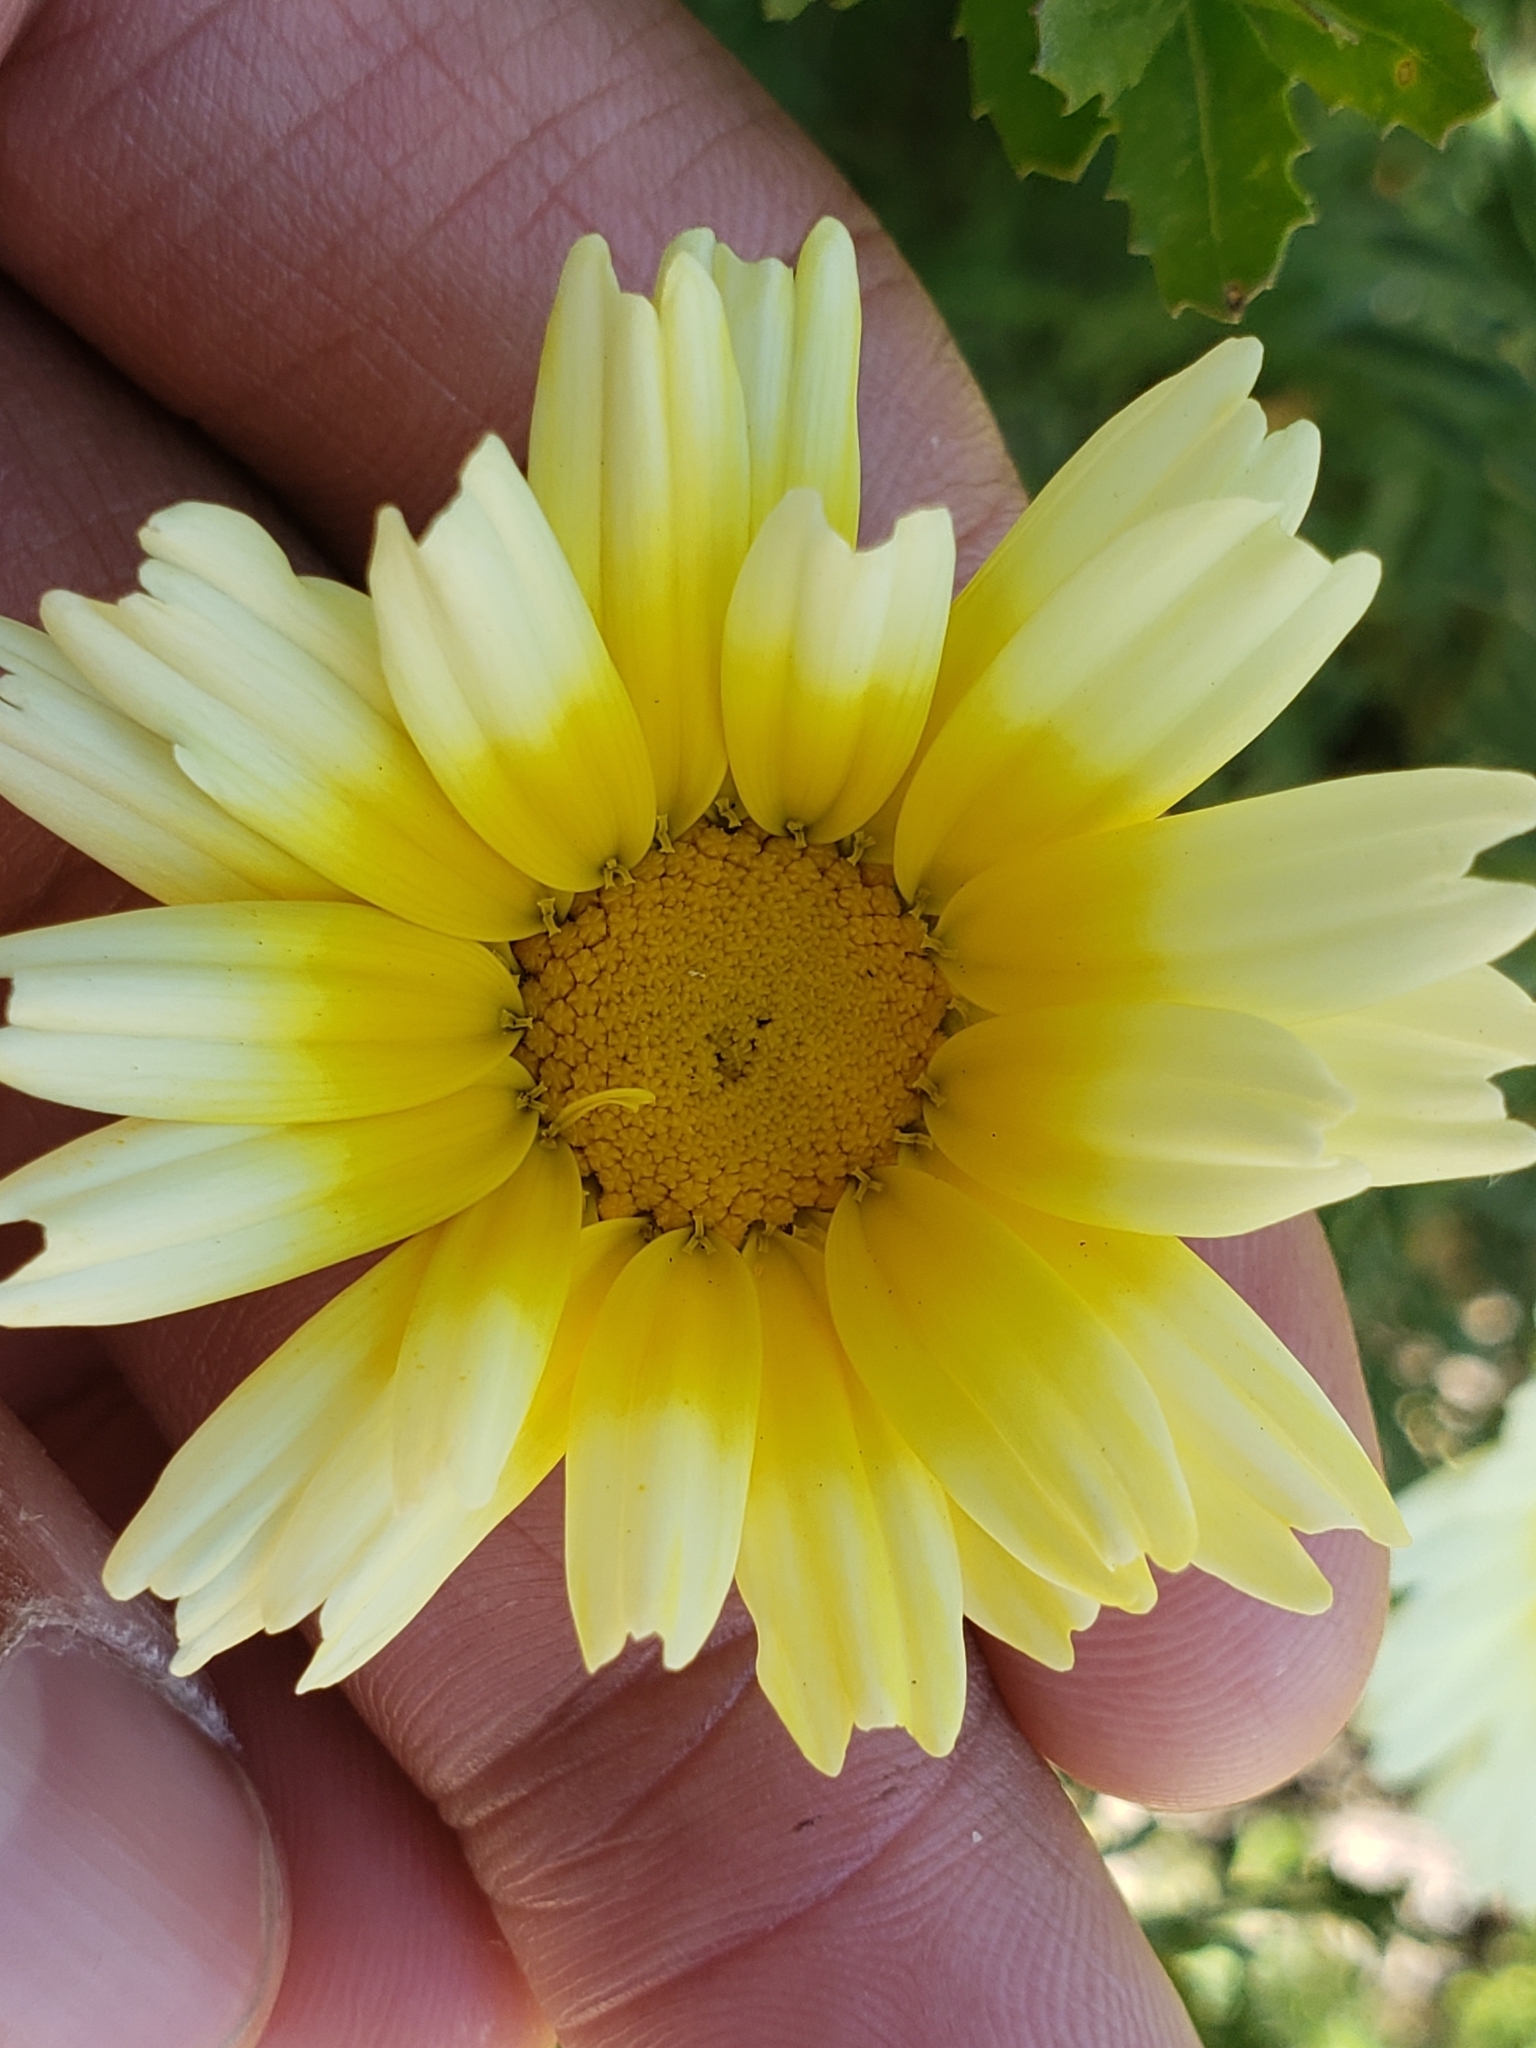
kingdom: Plantae
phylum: Tracheophyta
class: Magnoliopsida
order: Asterales
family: Asteraceae
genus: Glebionis
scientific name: Glebionis coronaria
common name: Crowndaisy
